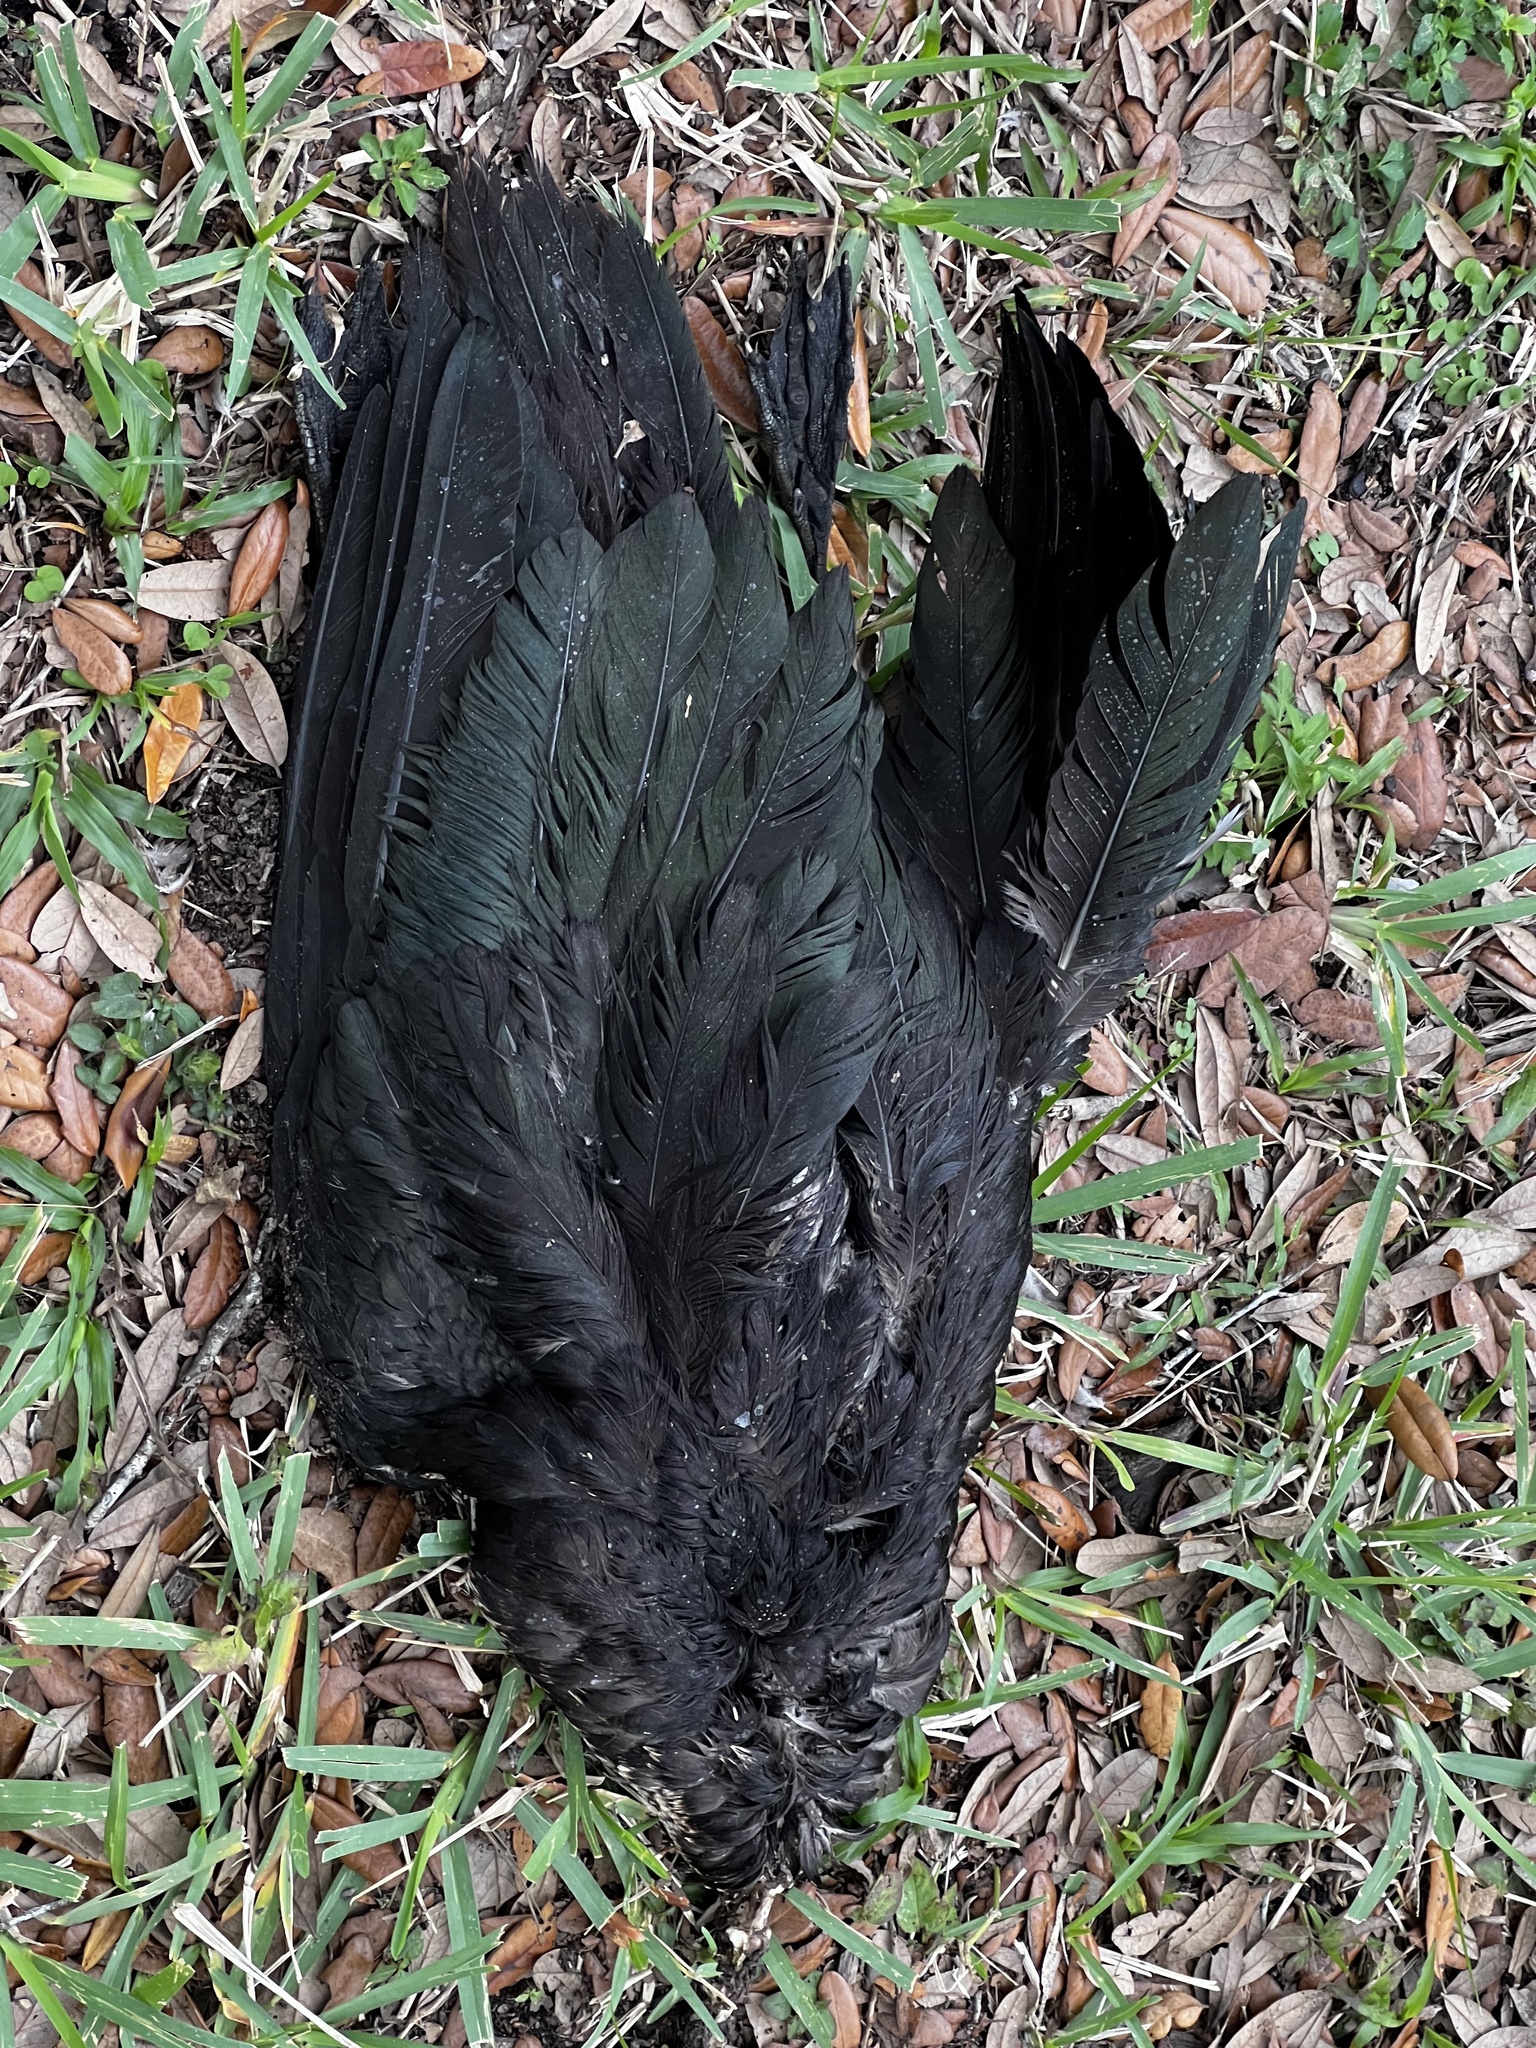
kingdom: Animalia
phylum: Chordata
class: Aves
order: Anseriformes
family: Anatidae
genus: Cairina
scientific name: Cairina moschata
